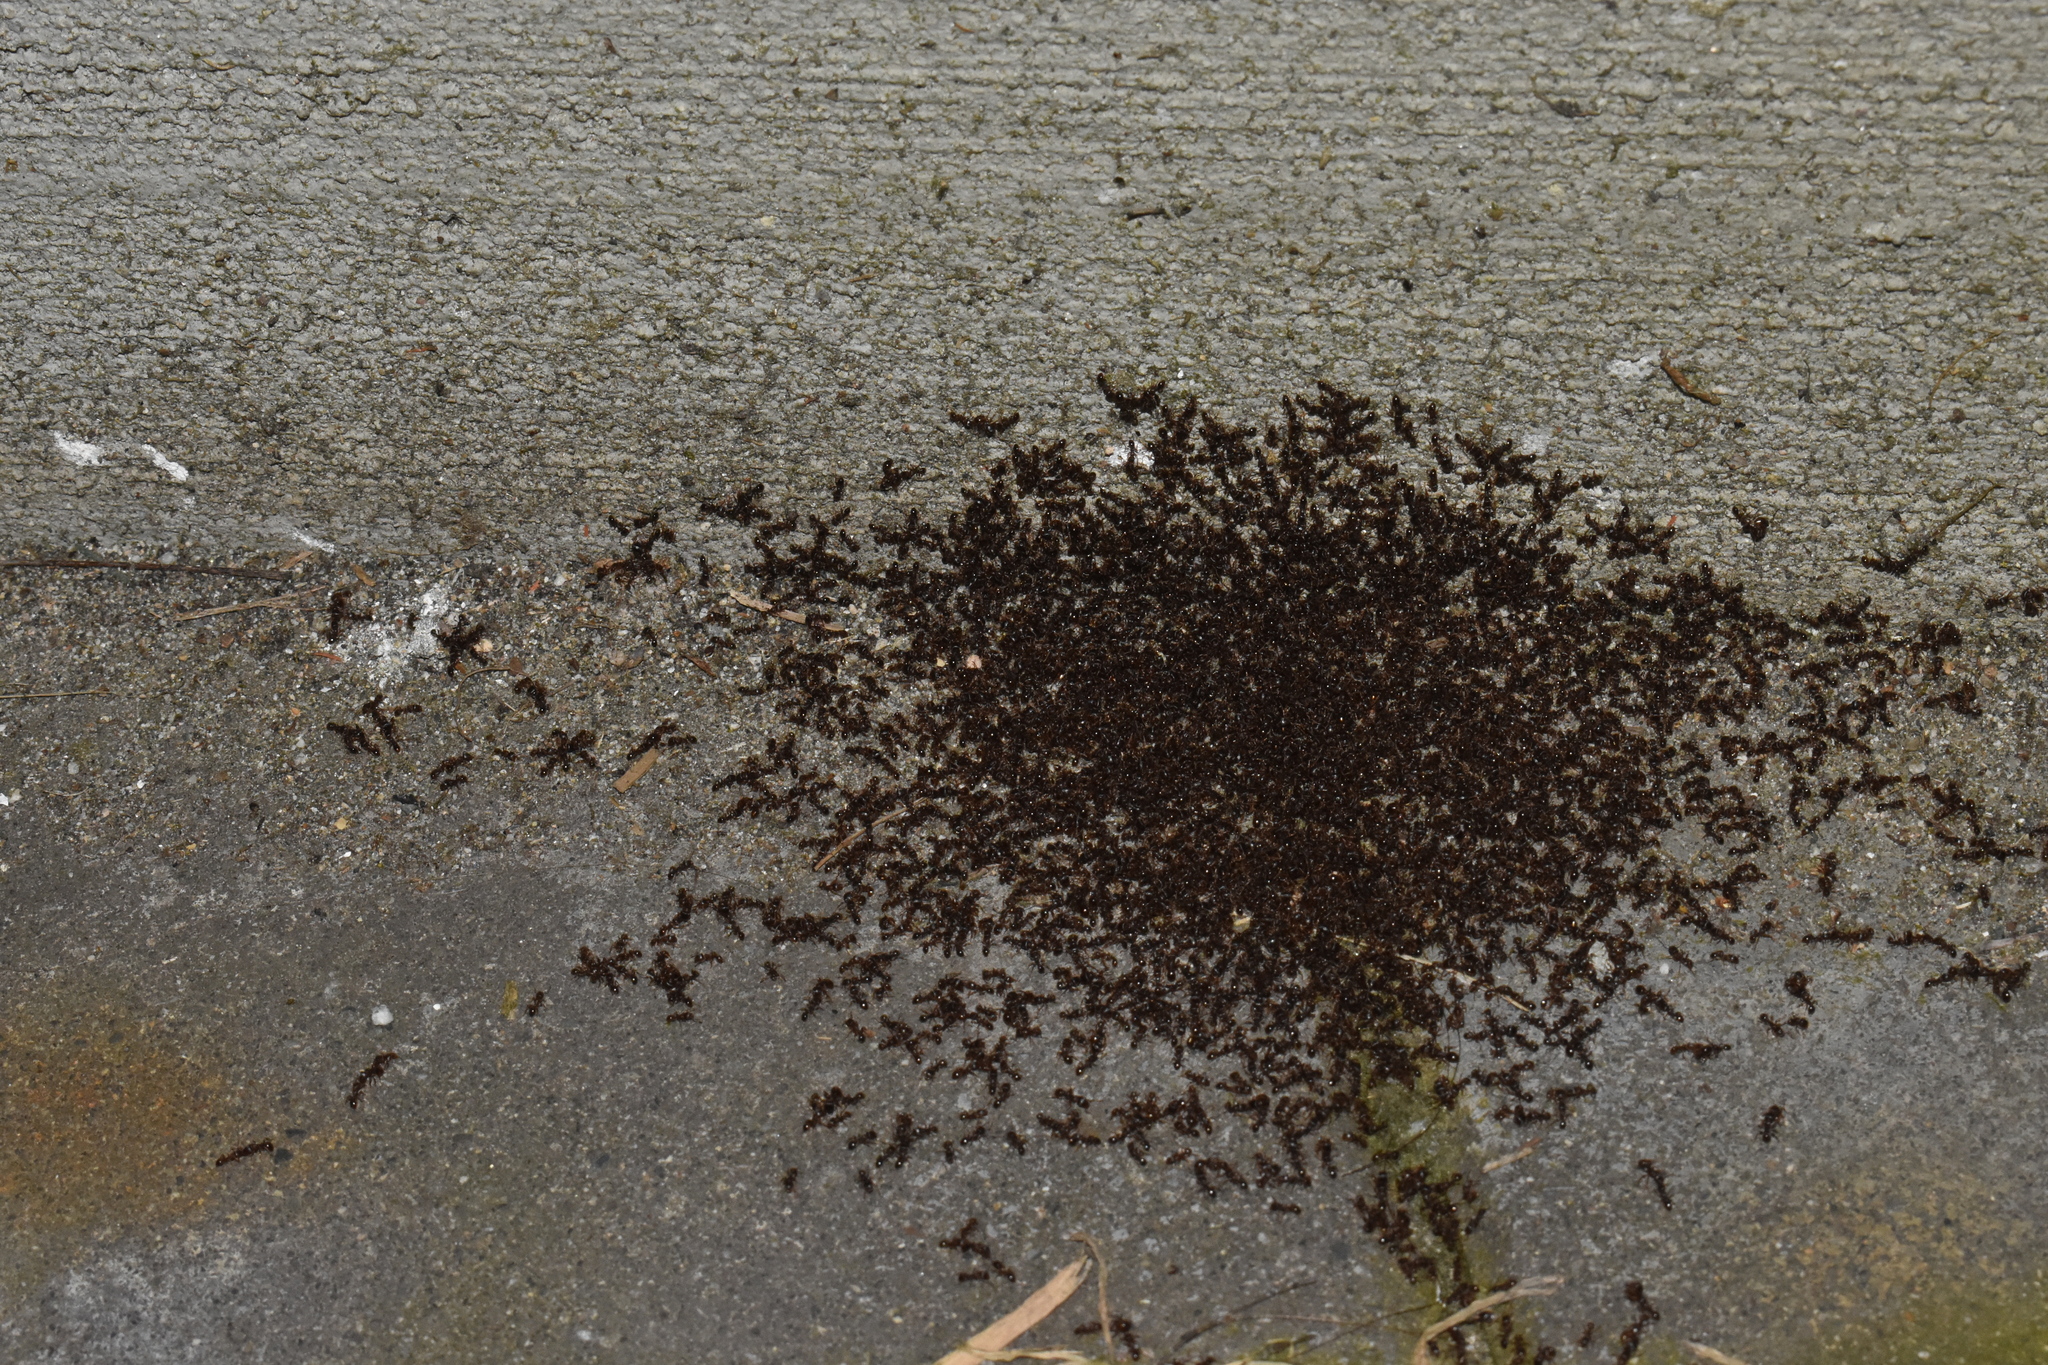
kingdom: Animalia
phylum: Arthropoda
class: Insecta
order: Hymenoptera
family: Formicidae
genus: Tetramorium
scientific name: Tetramorium immigrans
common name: Pavement ant
